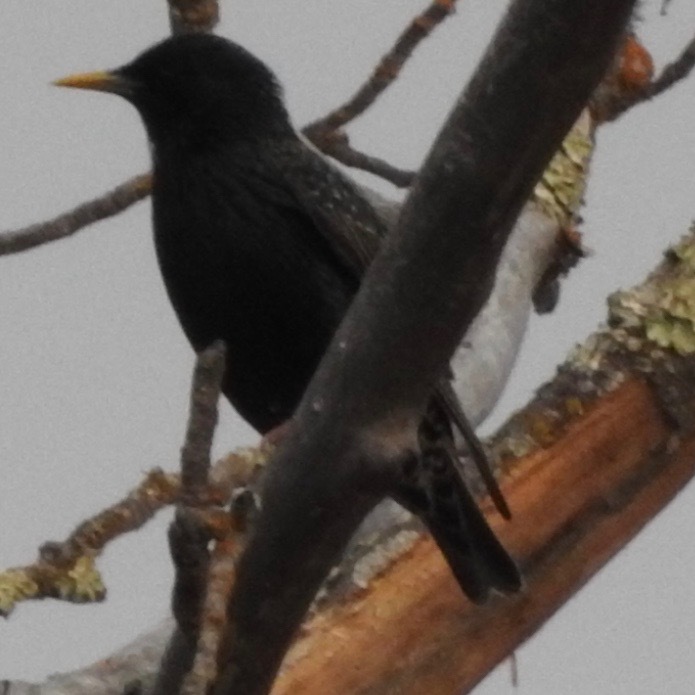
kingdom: Animalia
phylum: Chordata
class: Aves
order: Passeriformes
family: Sturnidae
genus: Sturnus
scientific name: Sturnus vulgaris
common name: Common starling
